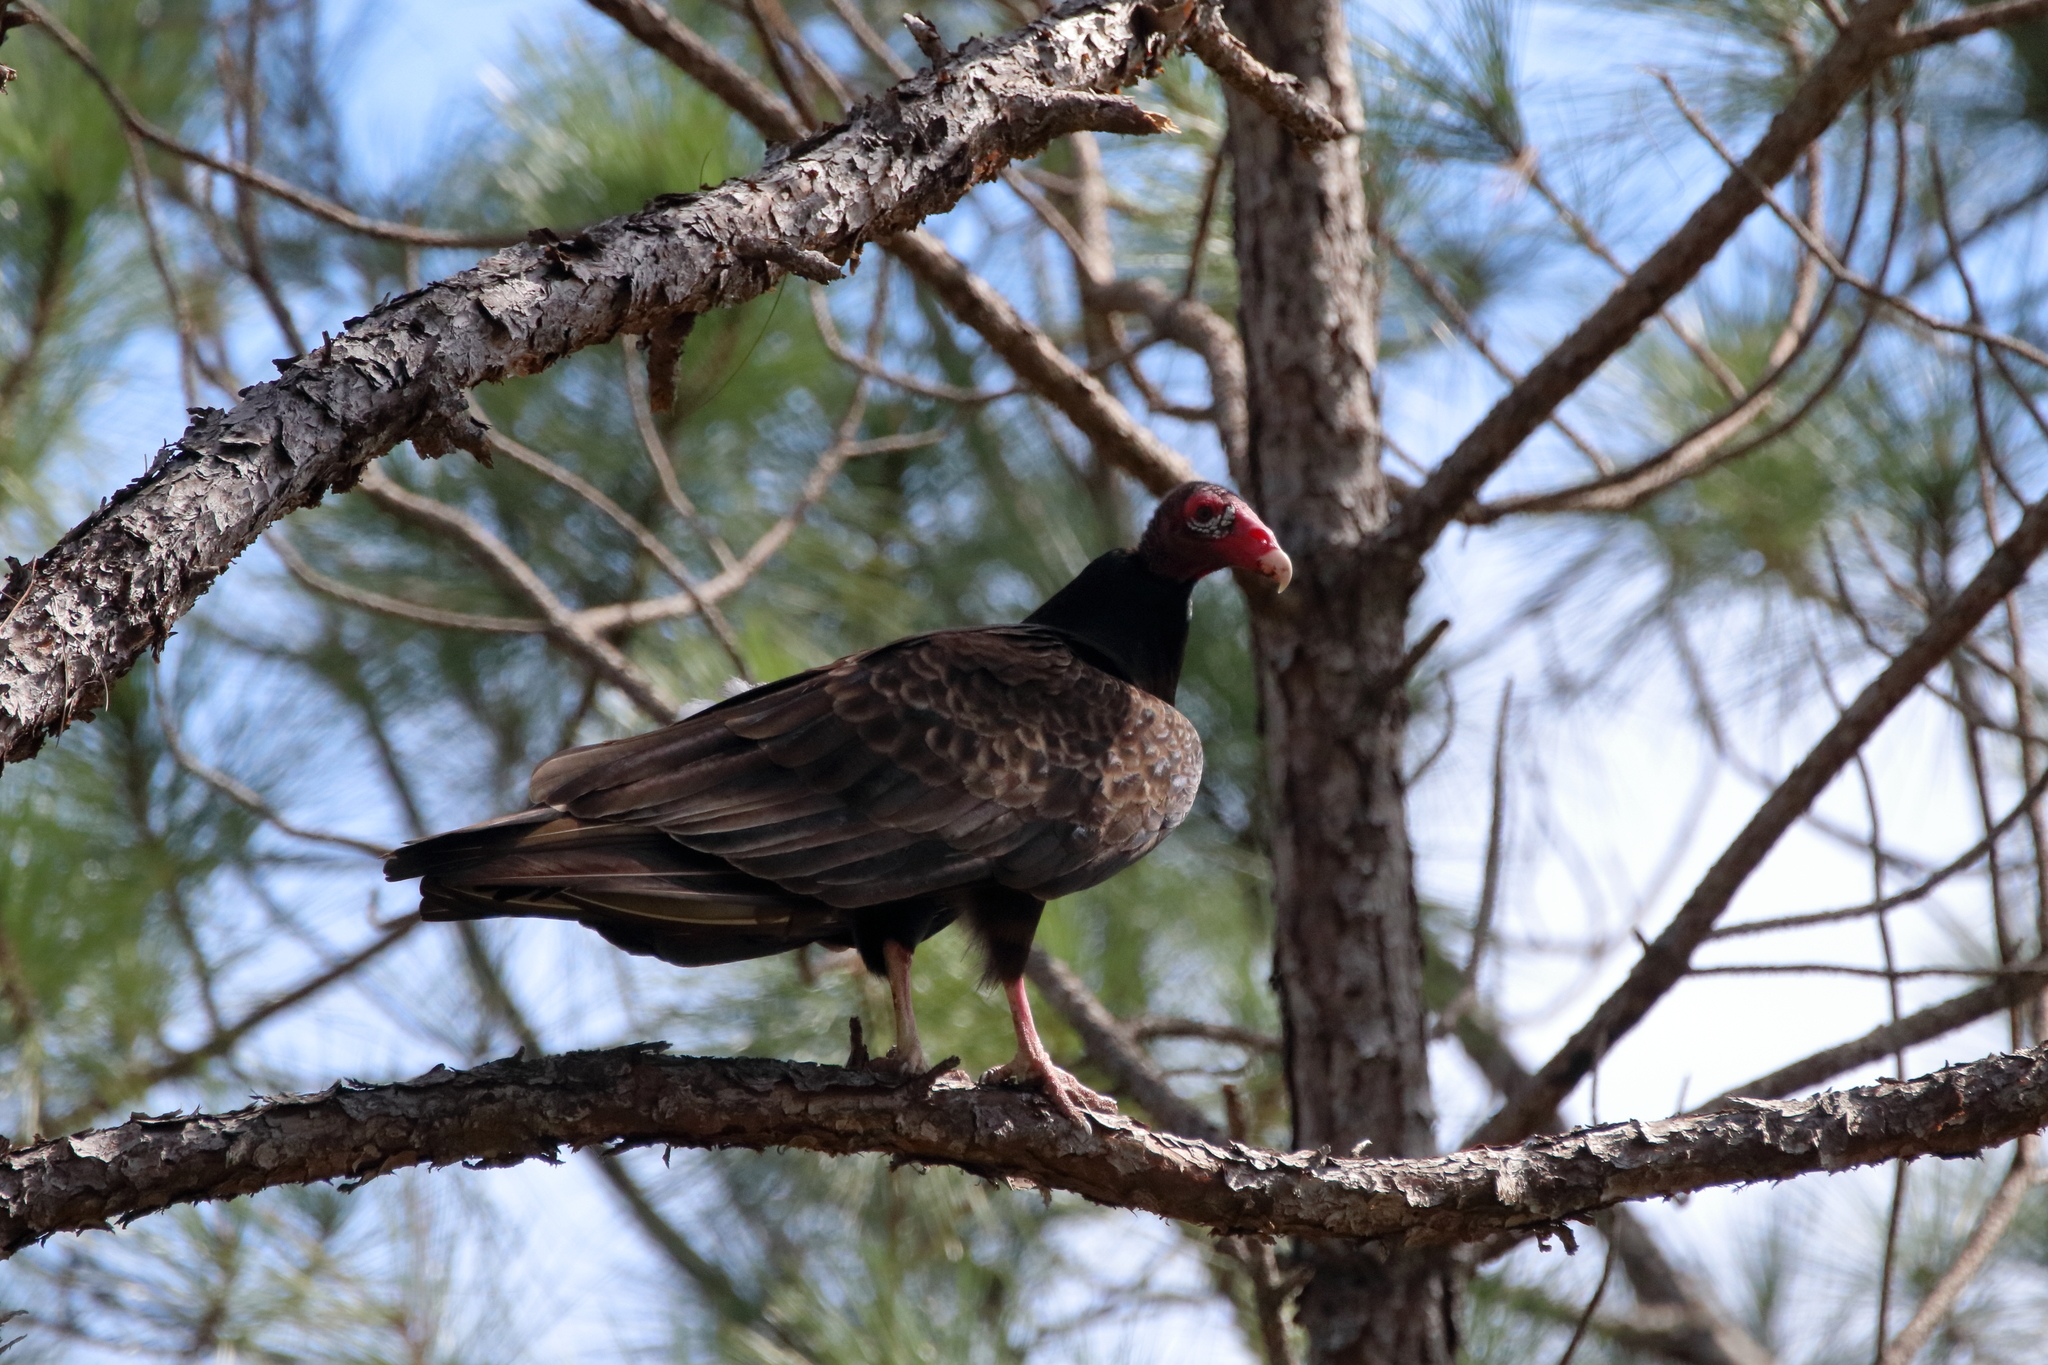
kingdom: Animalia
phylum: Chordata
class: Aves
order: Accipitriformes
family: Cathartidae
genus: Cathartes
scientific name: Cathartes aura
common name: Turkey vulture
